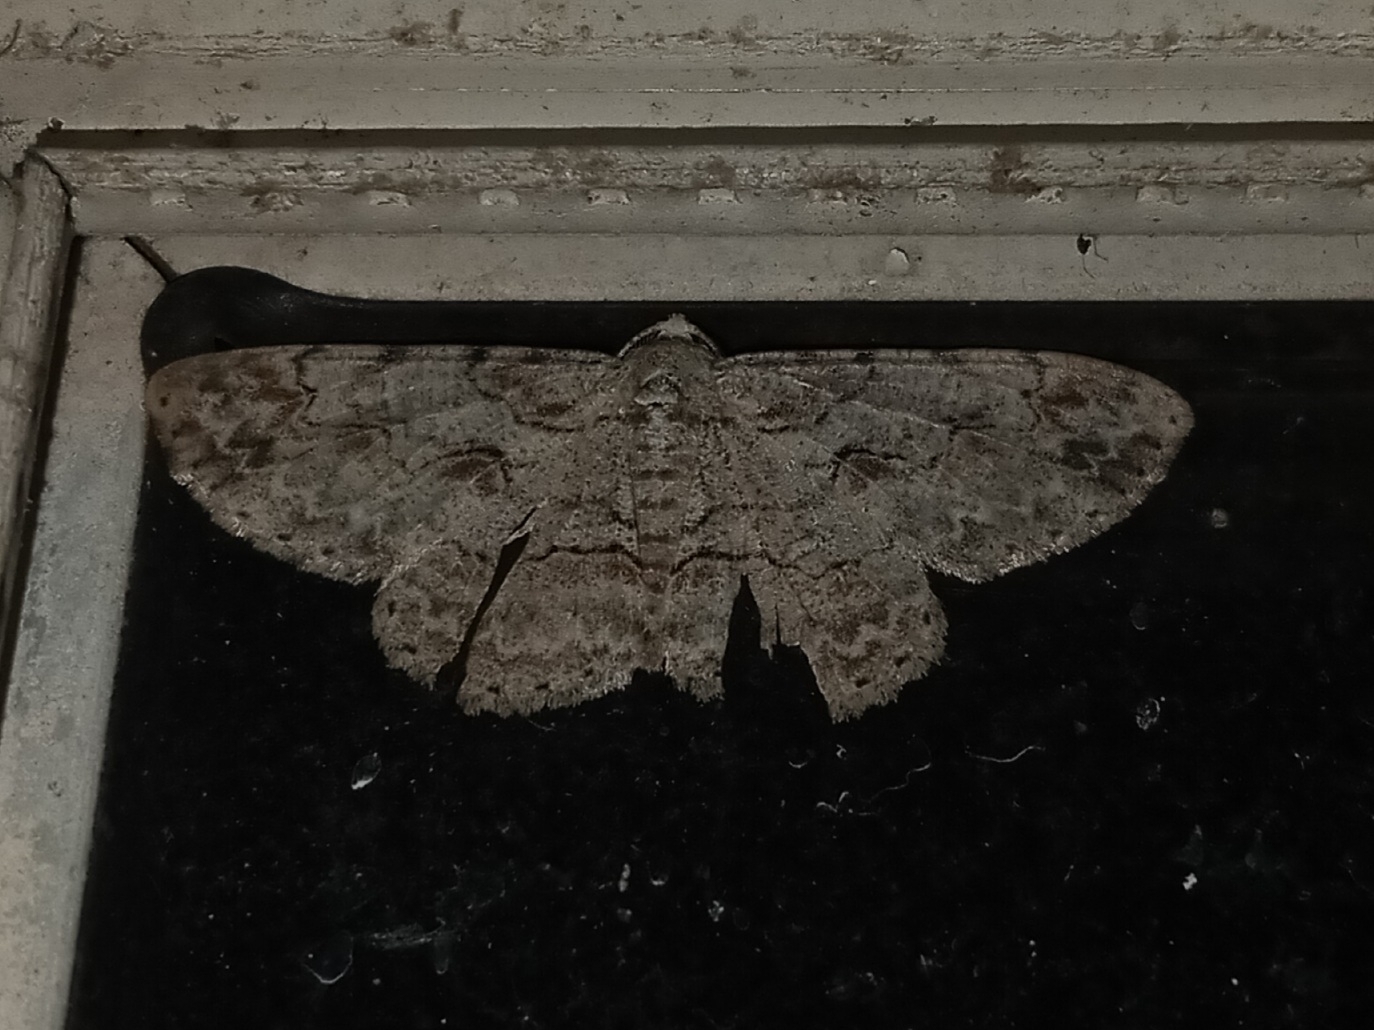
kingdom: Animalia
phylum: Arthropoda
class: Insecta
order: Lepidoptera
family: Geometridae
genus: Iridopsis
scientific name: Iridopsis defectaria
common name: Brown-shaded gray
